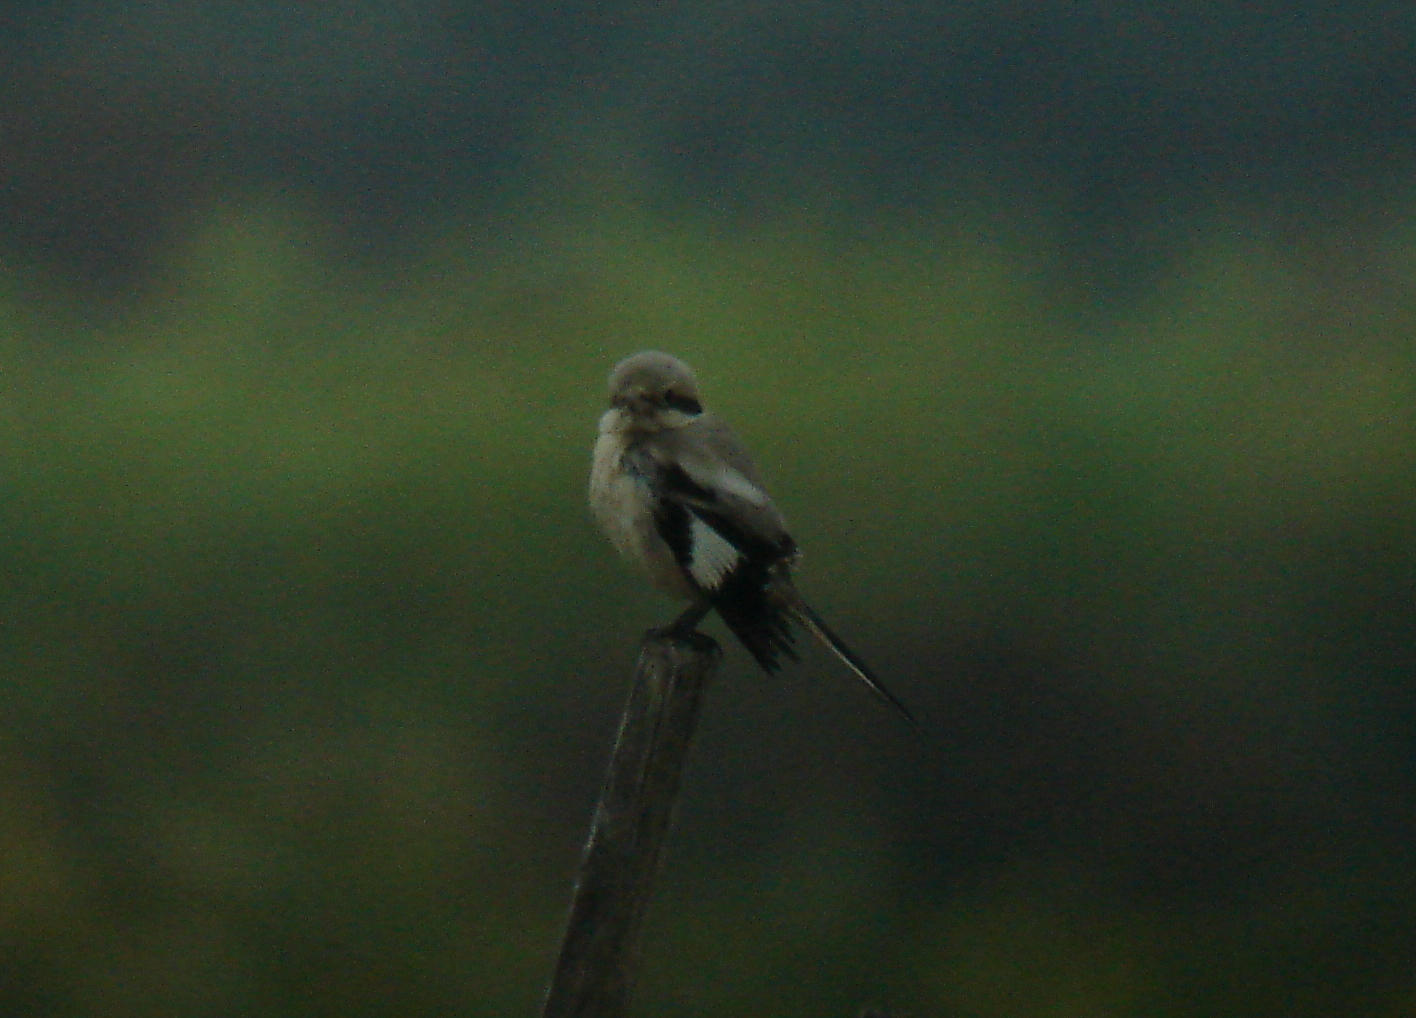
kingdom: Animalia
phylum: Chordata
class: Aves
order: Passeriformes
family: Laniidae
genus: Lanius
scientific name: Lanius excubitor
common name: Great grey shrike
